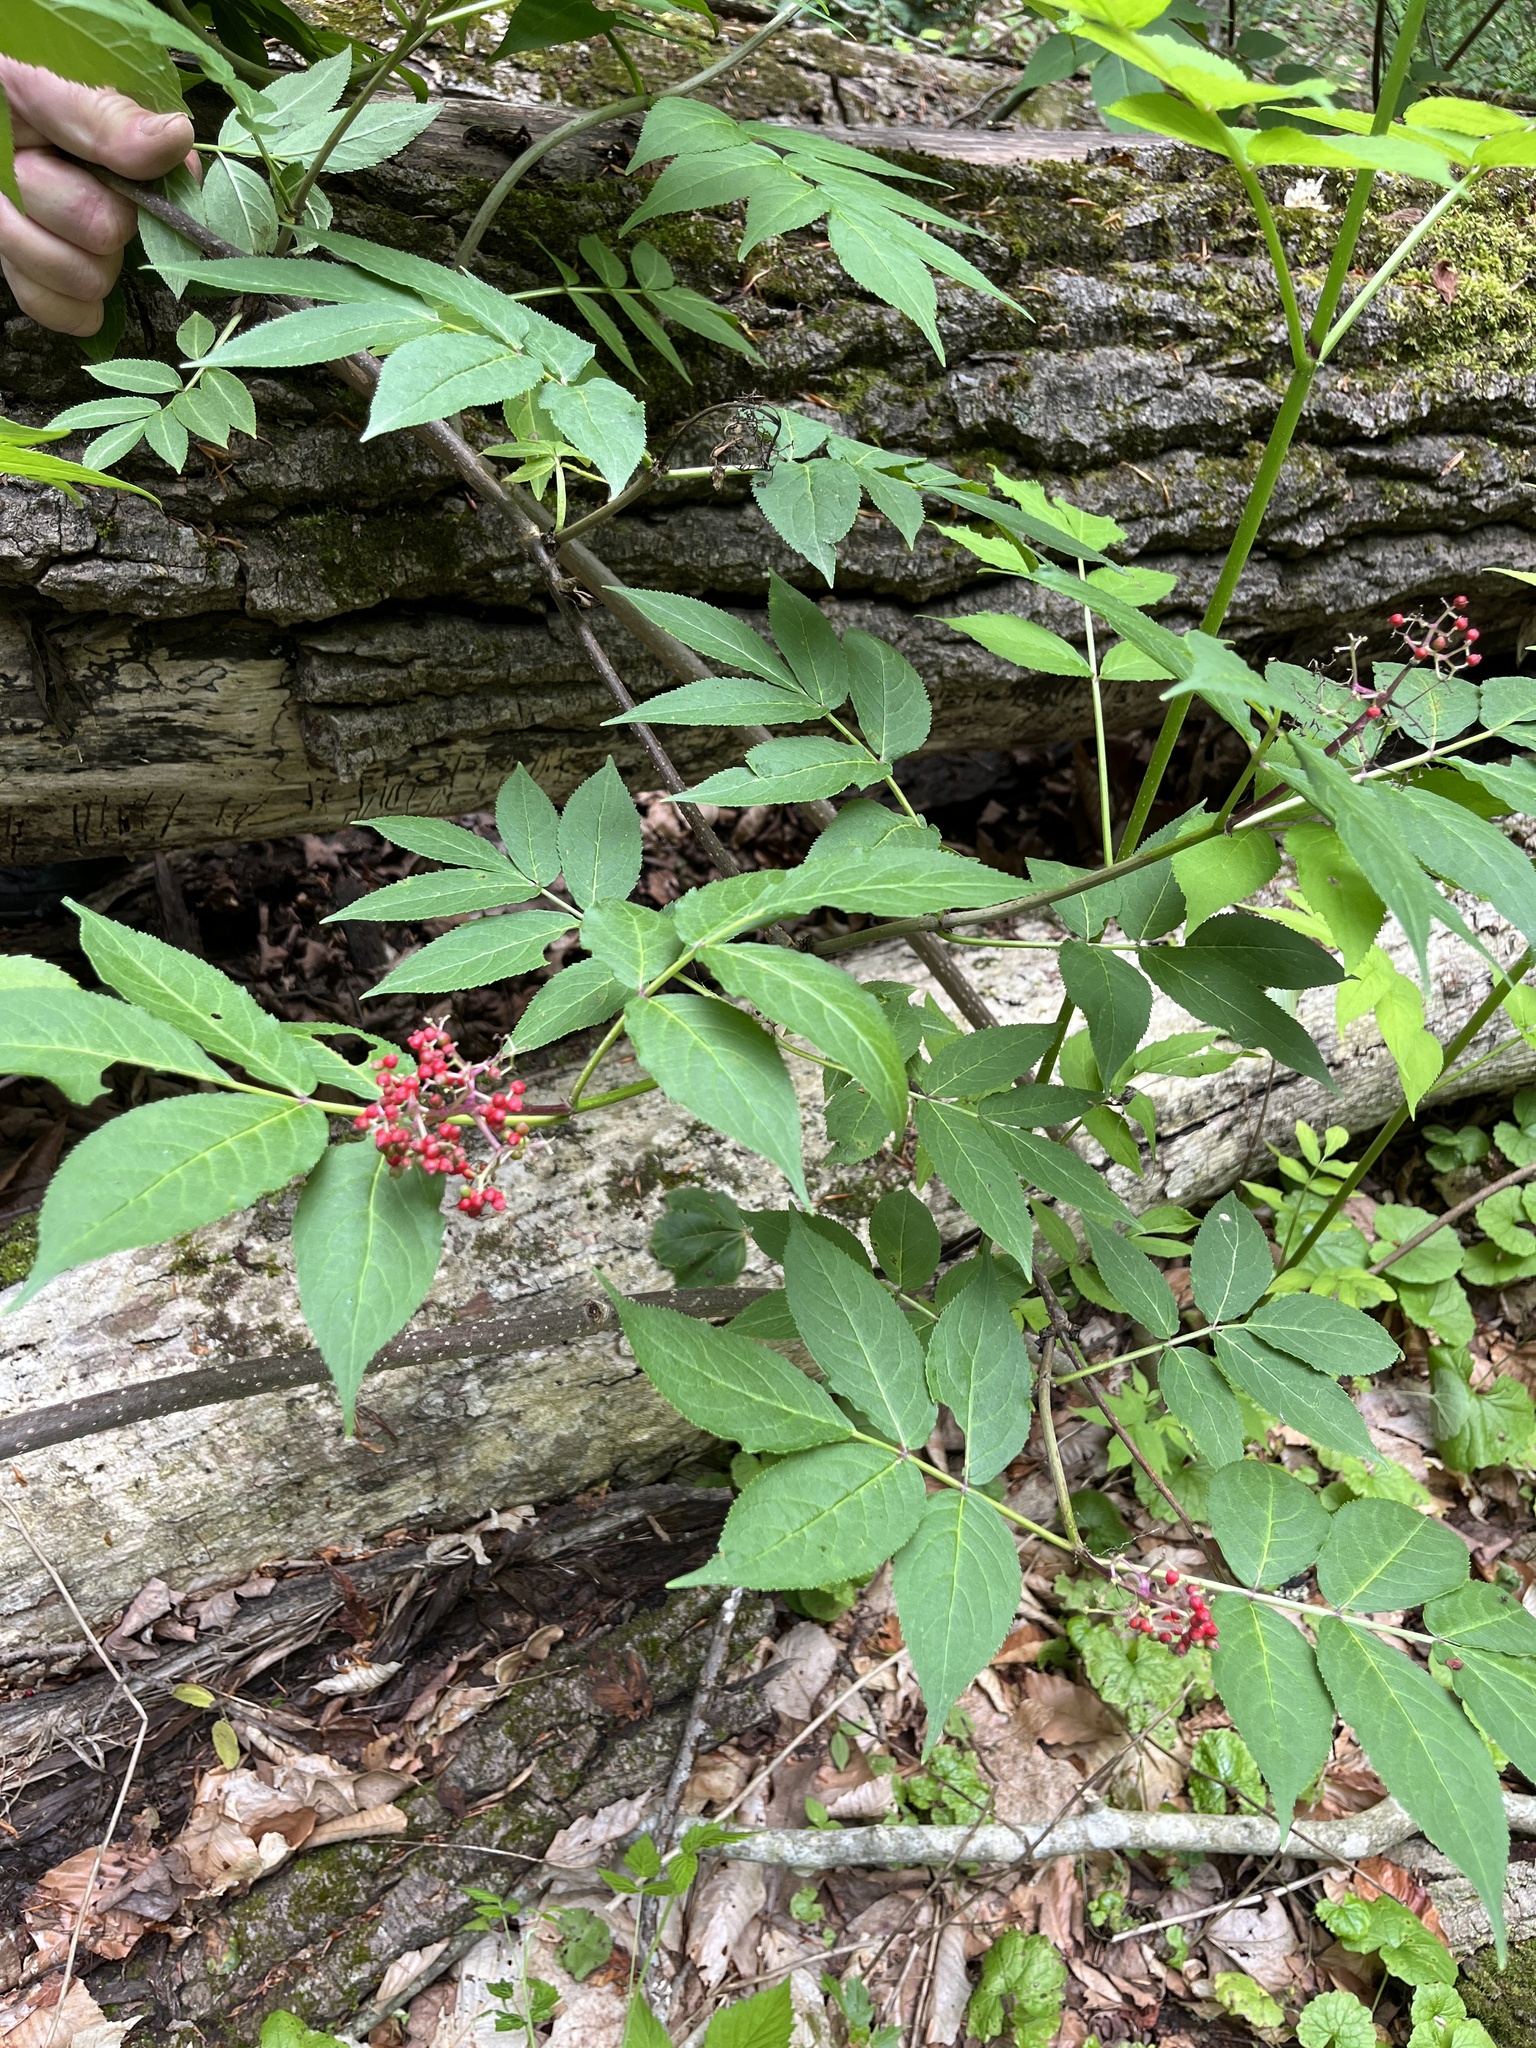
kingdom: Plantae
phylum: Tracheophyta
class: Magnoliopsida
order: Dipsacales
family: Viburnaceae
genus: Sambucus
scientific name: Sambucus racemosa
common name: Red-berried elder
